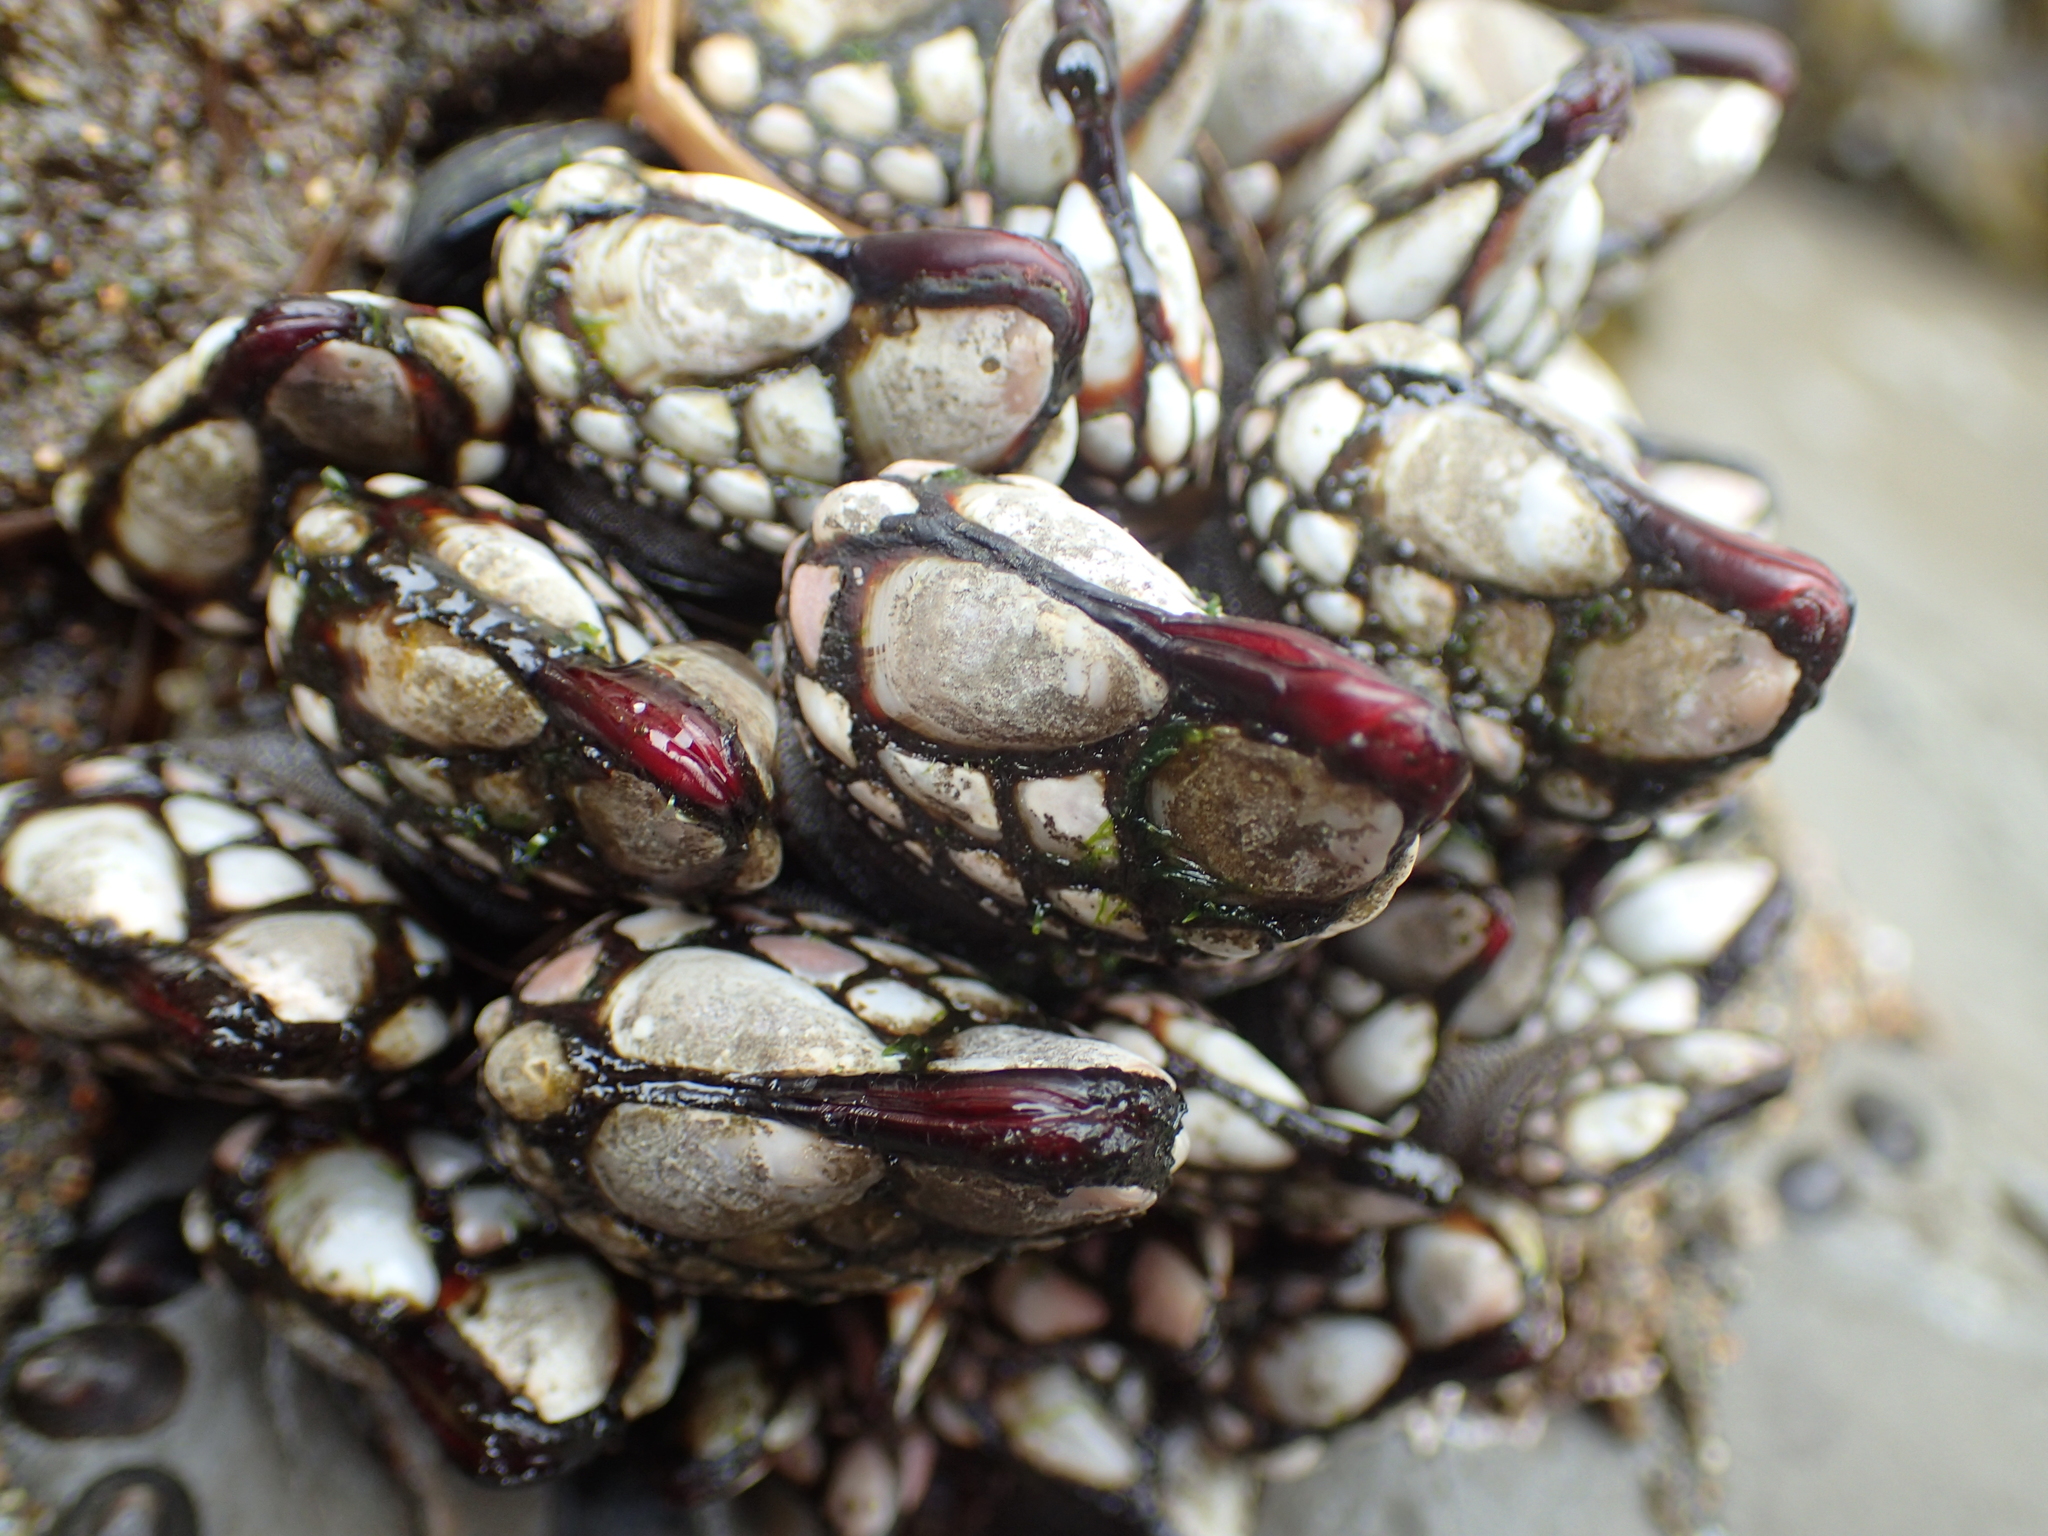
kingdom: Animalia
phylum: Arthropoda
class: Maxillopoda
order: Pedunculata
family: Pollicipedidae
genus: Pollicipes
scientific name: Pollicipes polymerus
